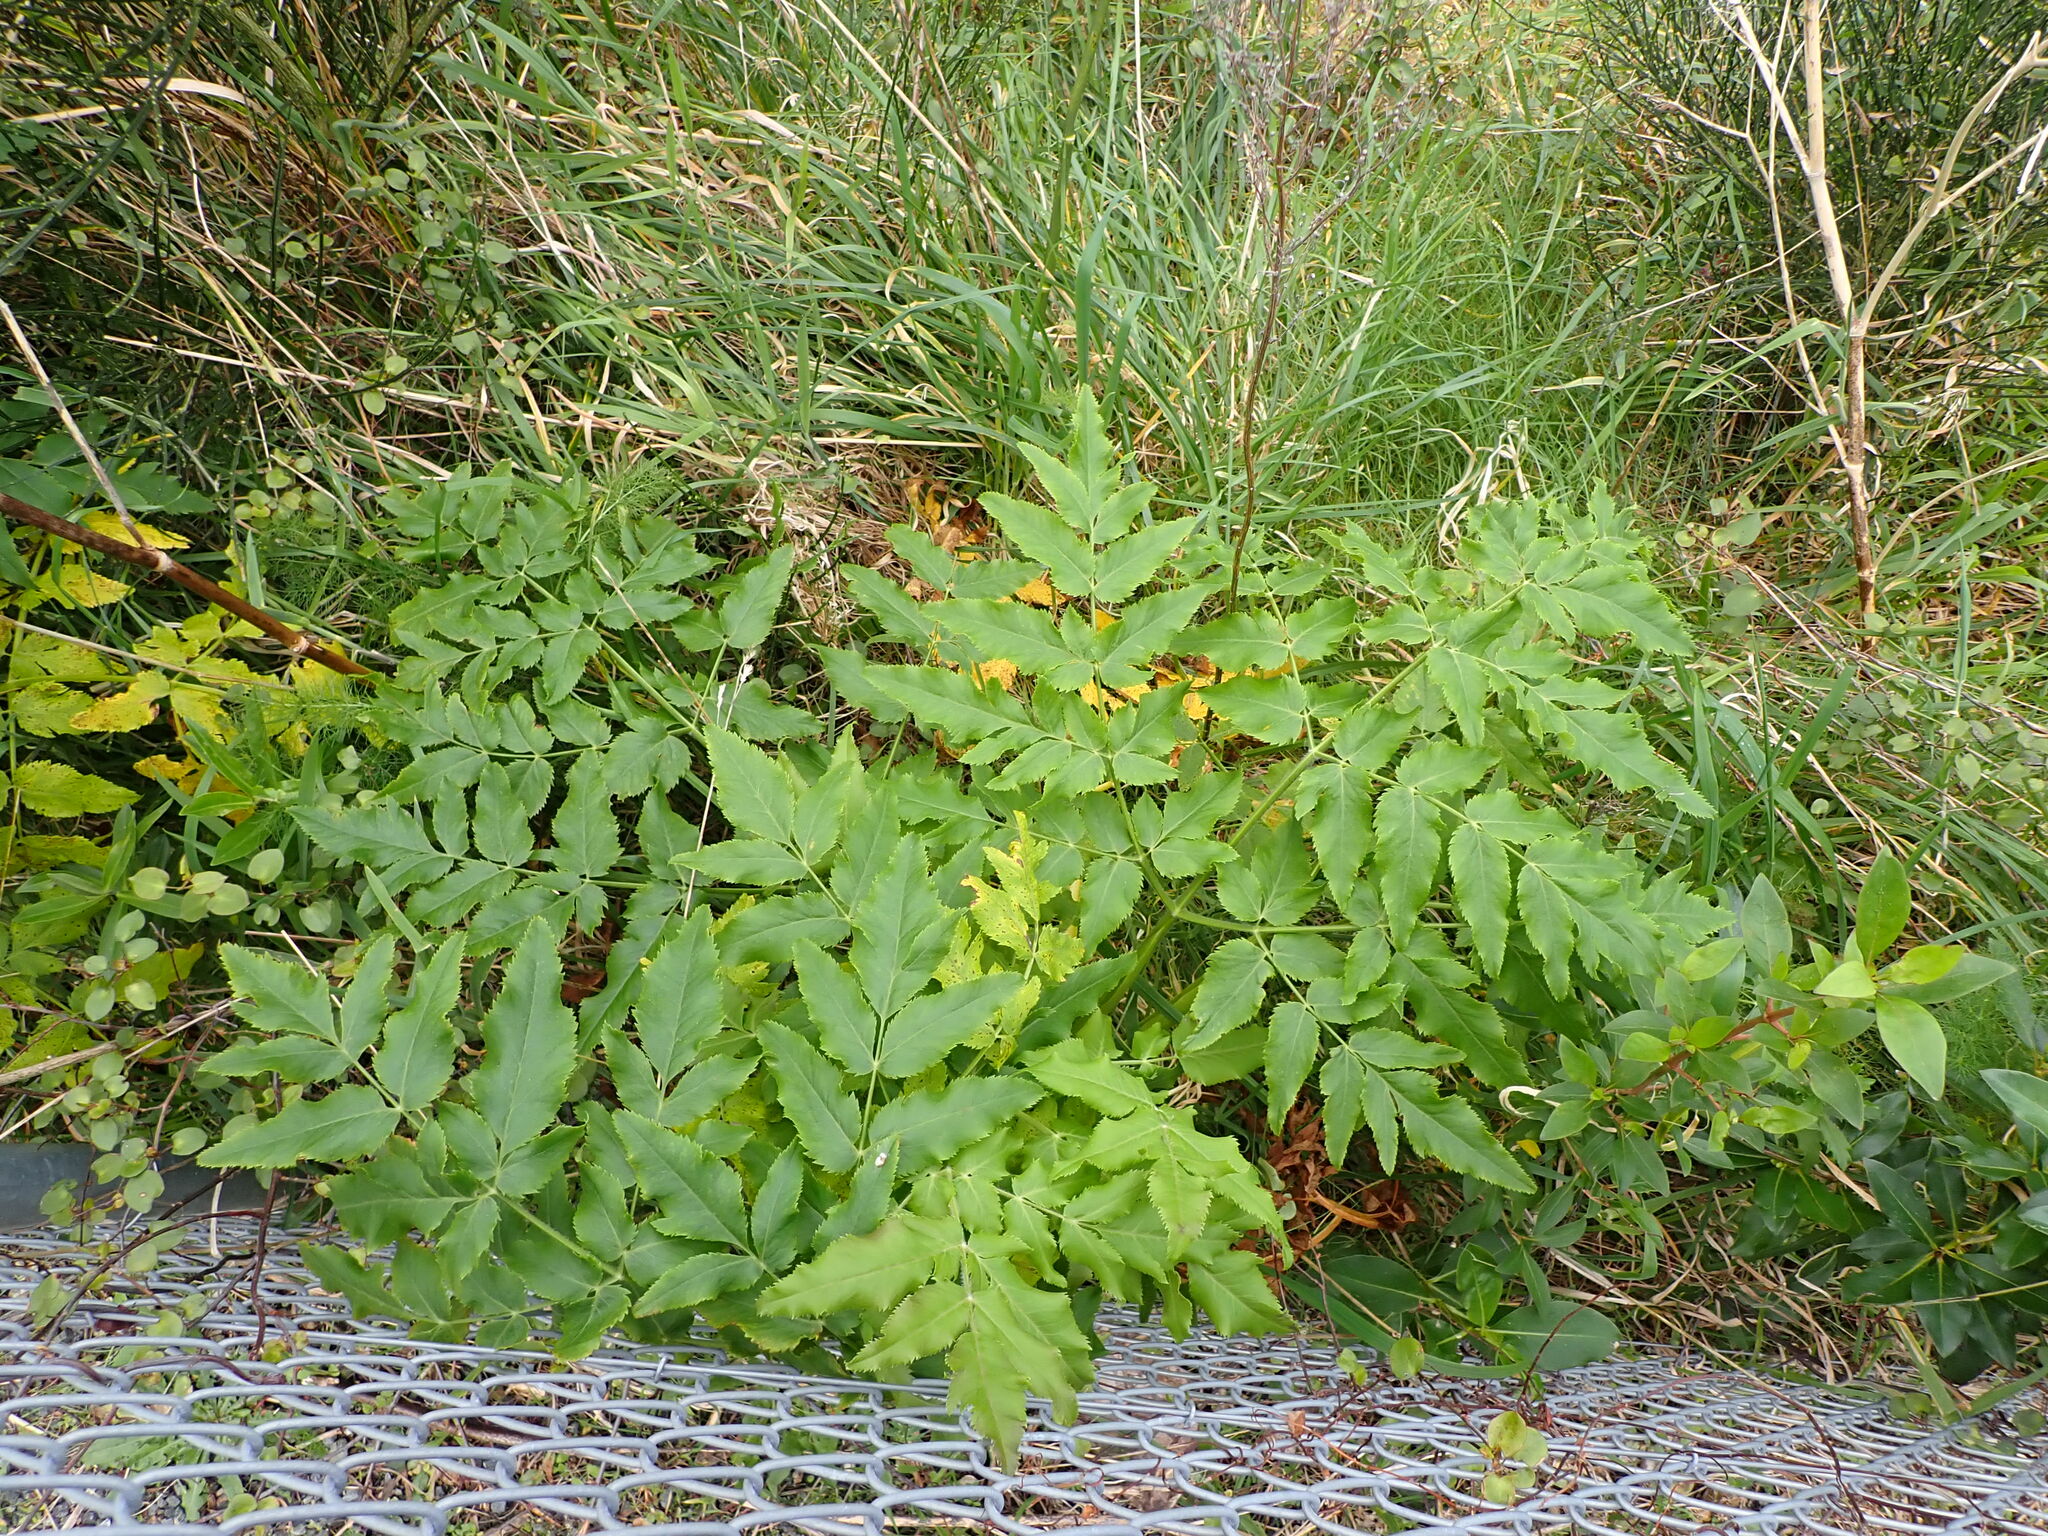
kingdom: Plantae
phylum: Tracheophyta
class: Magnoliopsida
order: Apiales
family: Apiaceae
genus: Daucus
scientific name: Daucus decipiens
